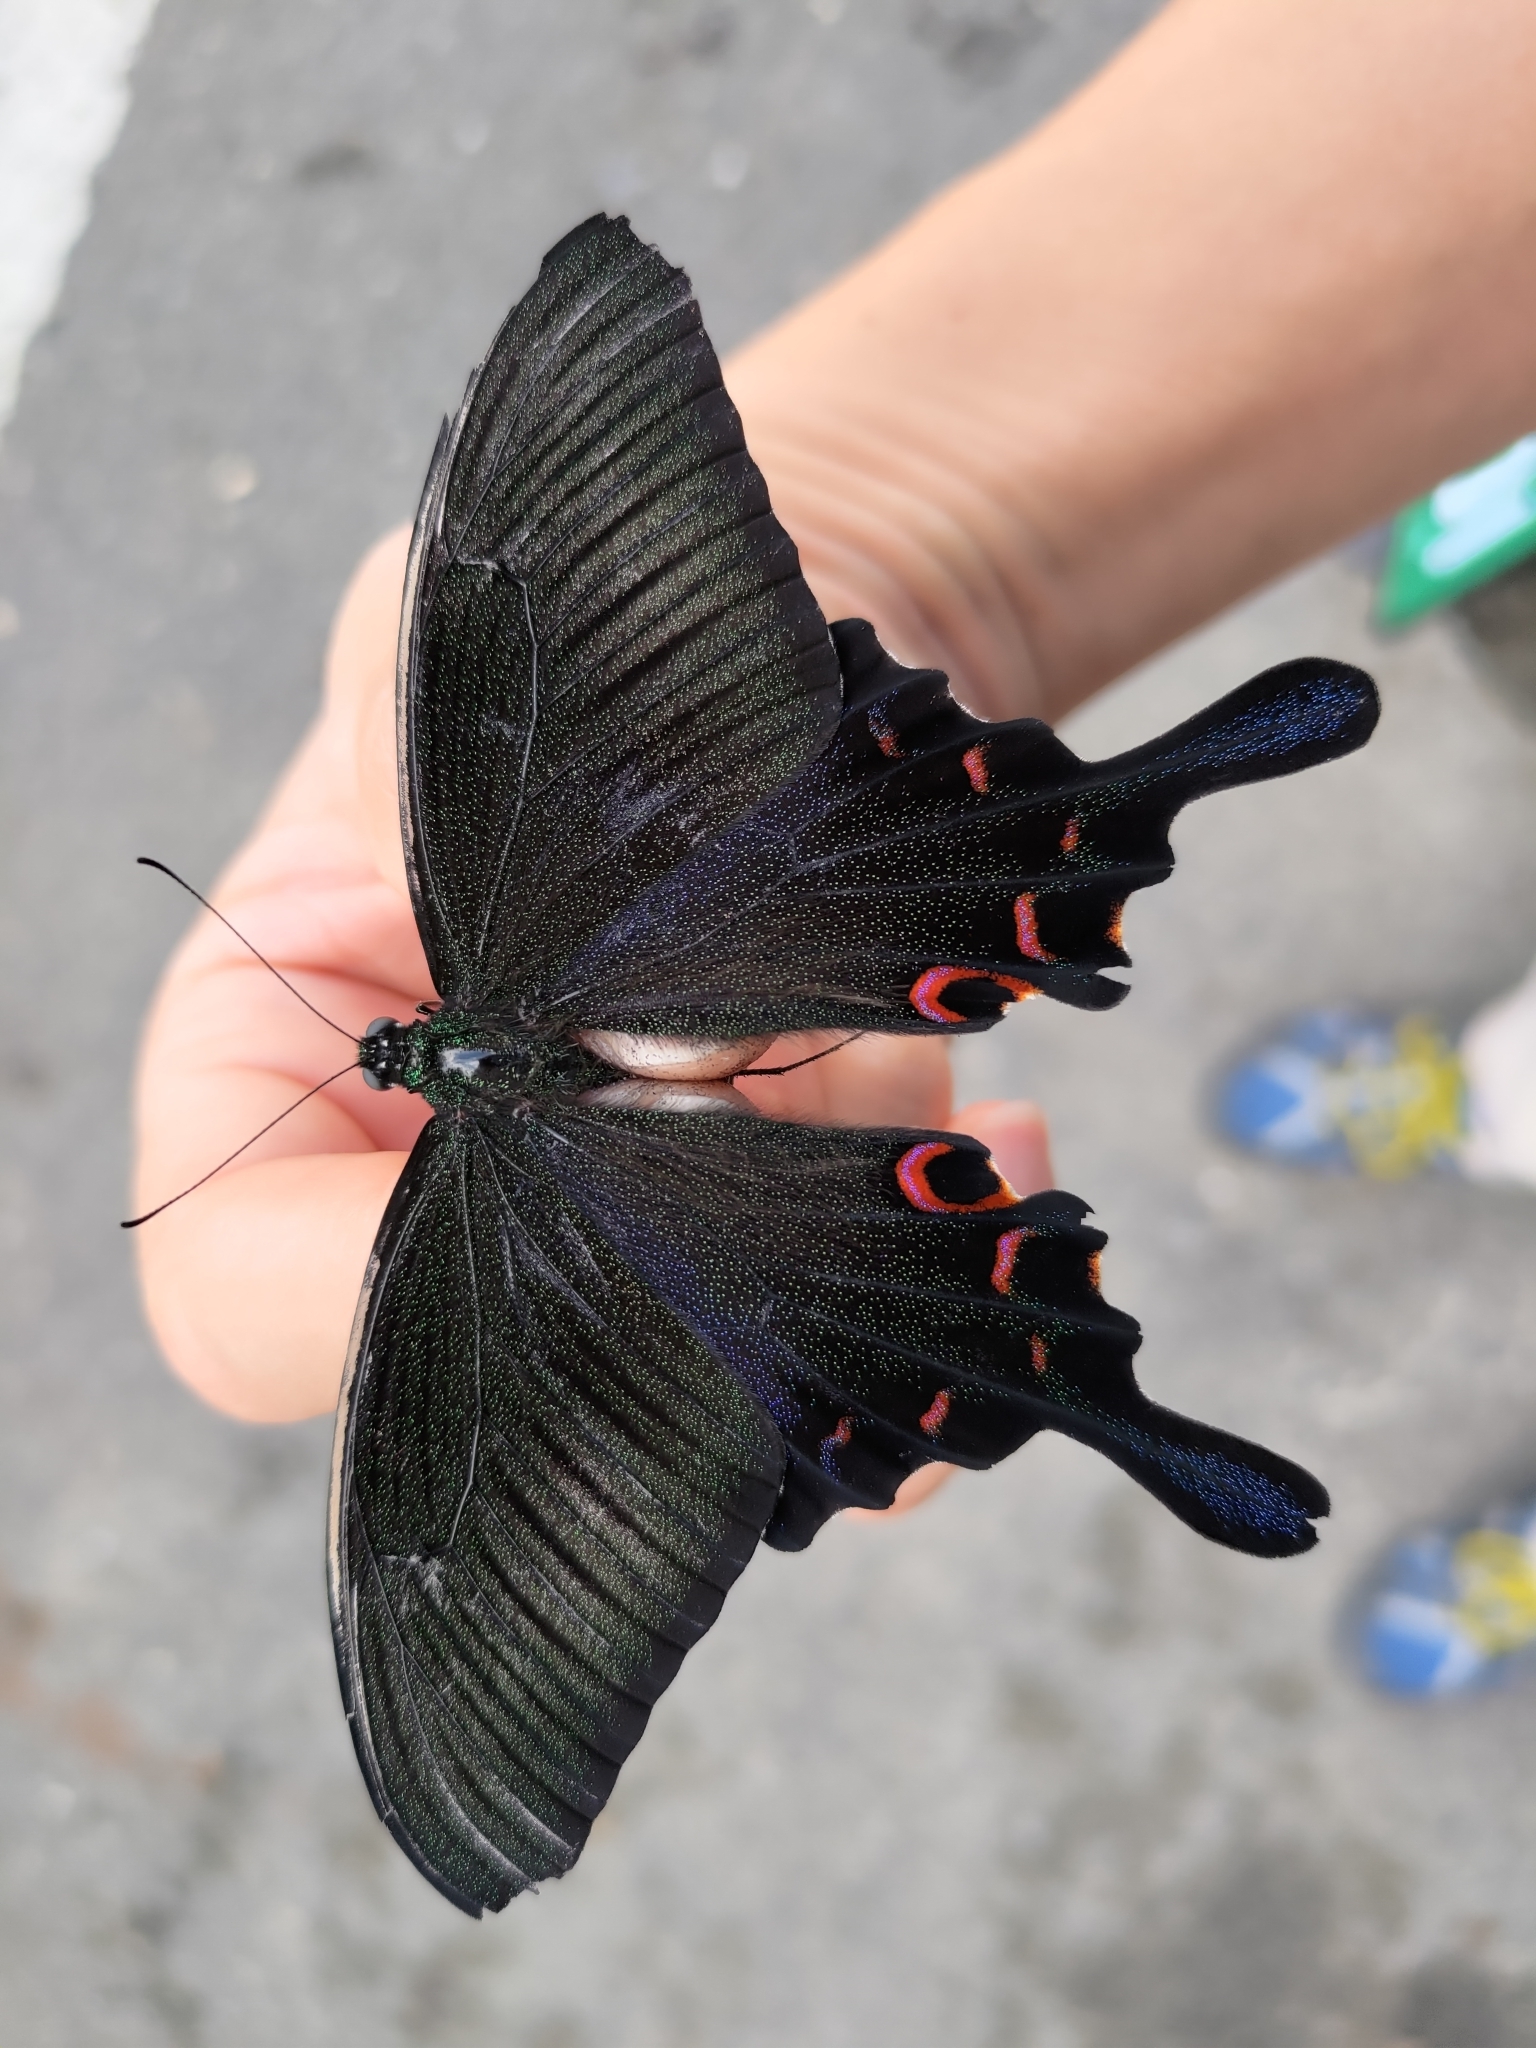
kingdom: Animalia
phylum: Arthropoda
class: Insecta
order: Lepidoptera
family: Papilionidae
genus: Papilio
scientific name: Papilio bianor
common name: Common peacock
